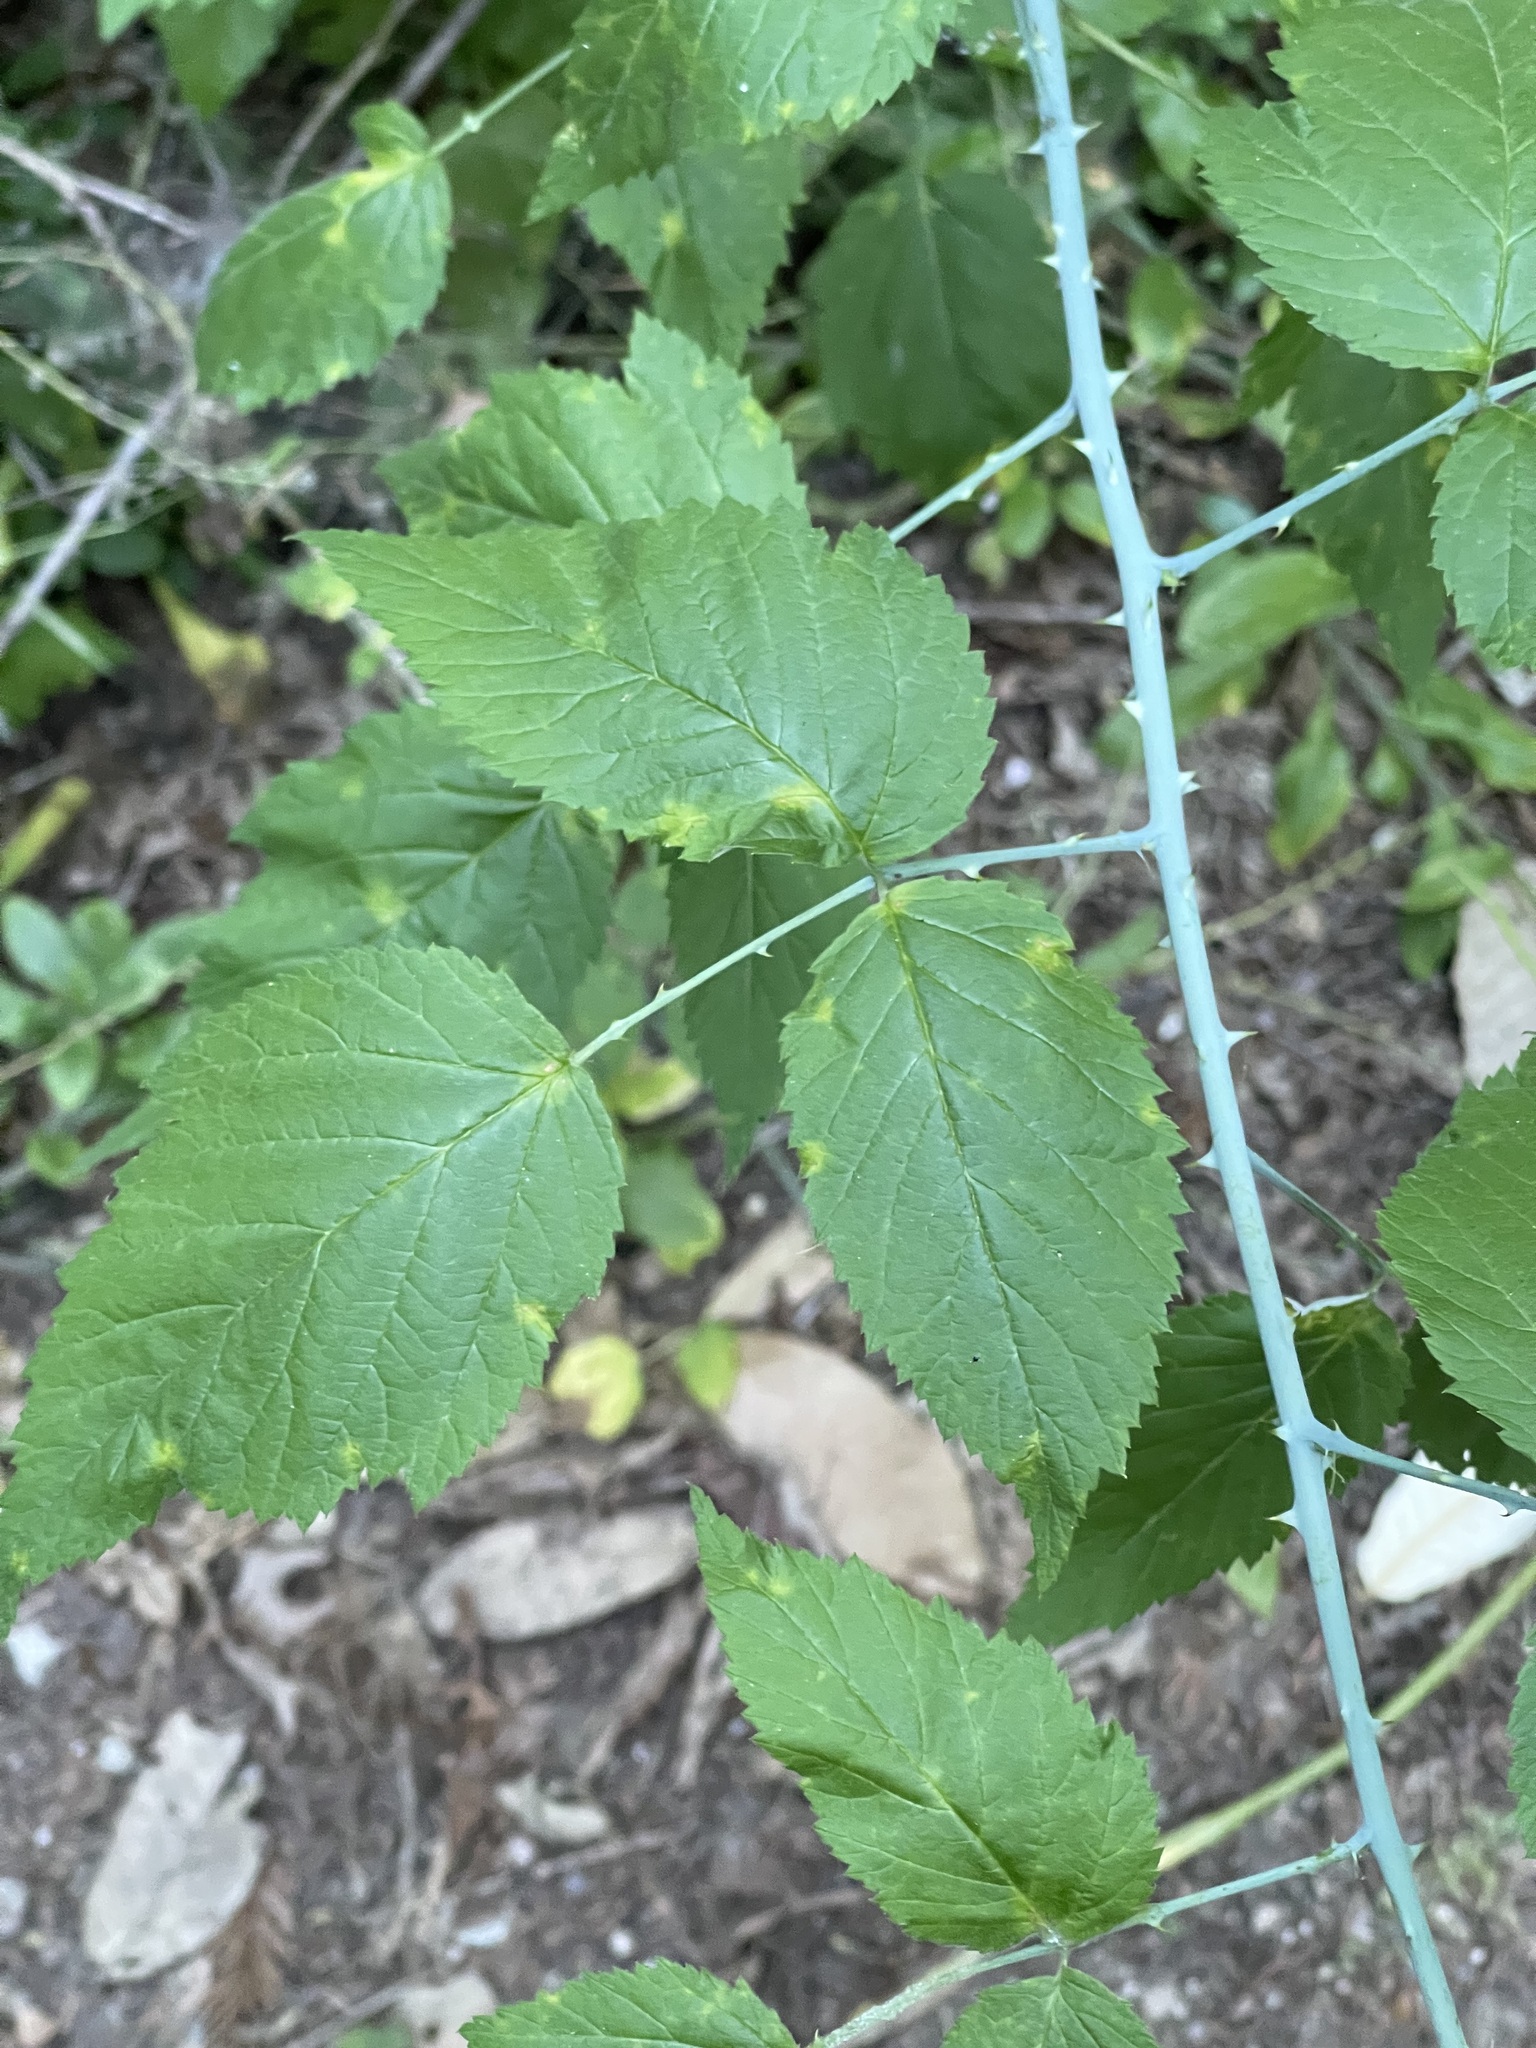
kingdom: Plantae
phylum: Tracheophyta
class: Magnoliopsida
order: Rosales
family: Rosaceae
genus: Rubus
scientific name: Rubus leucodermis
